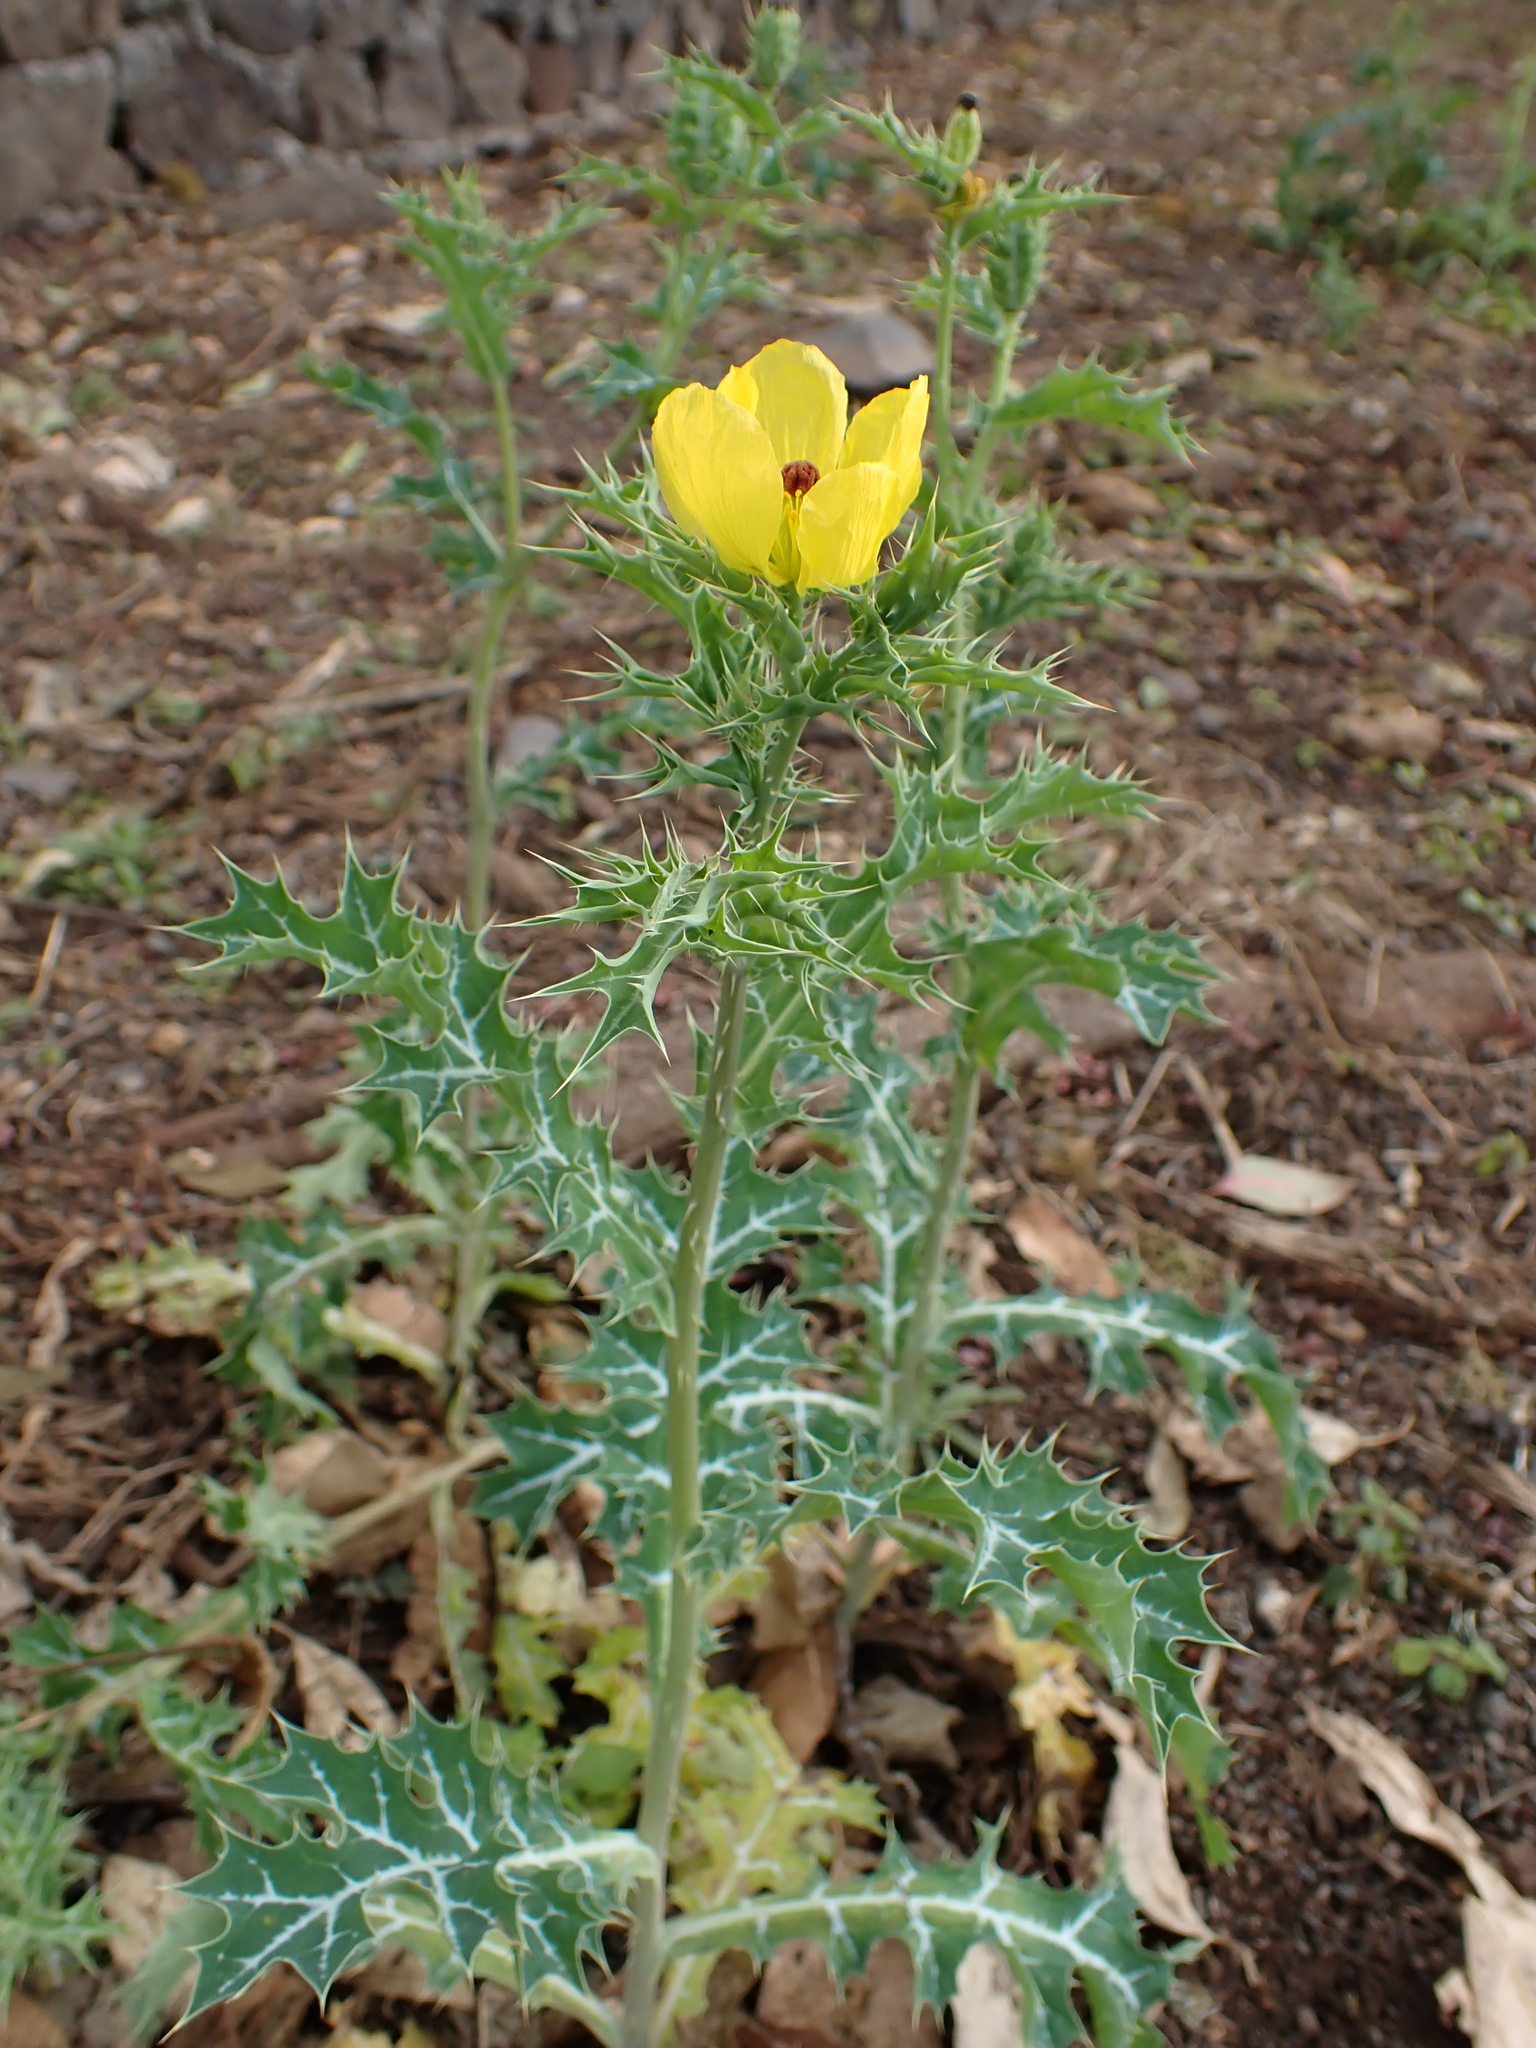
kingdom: Plantae
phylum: Tracheophyta
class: Magnoliopsida
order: Ranunculales
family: Papaveraceae
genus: Argemone
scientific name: Argemone mexicana
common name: Mexican poppy
